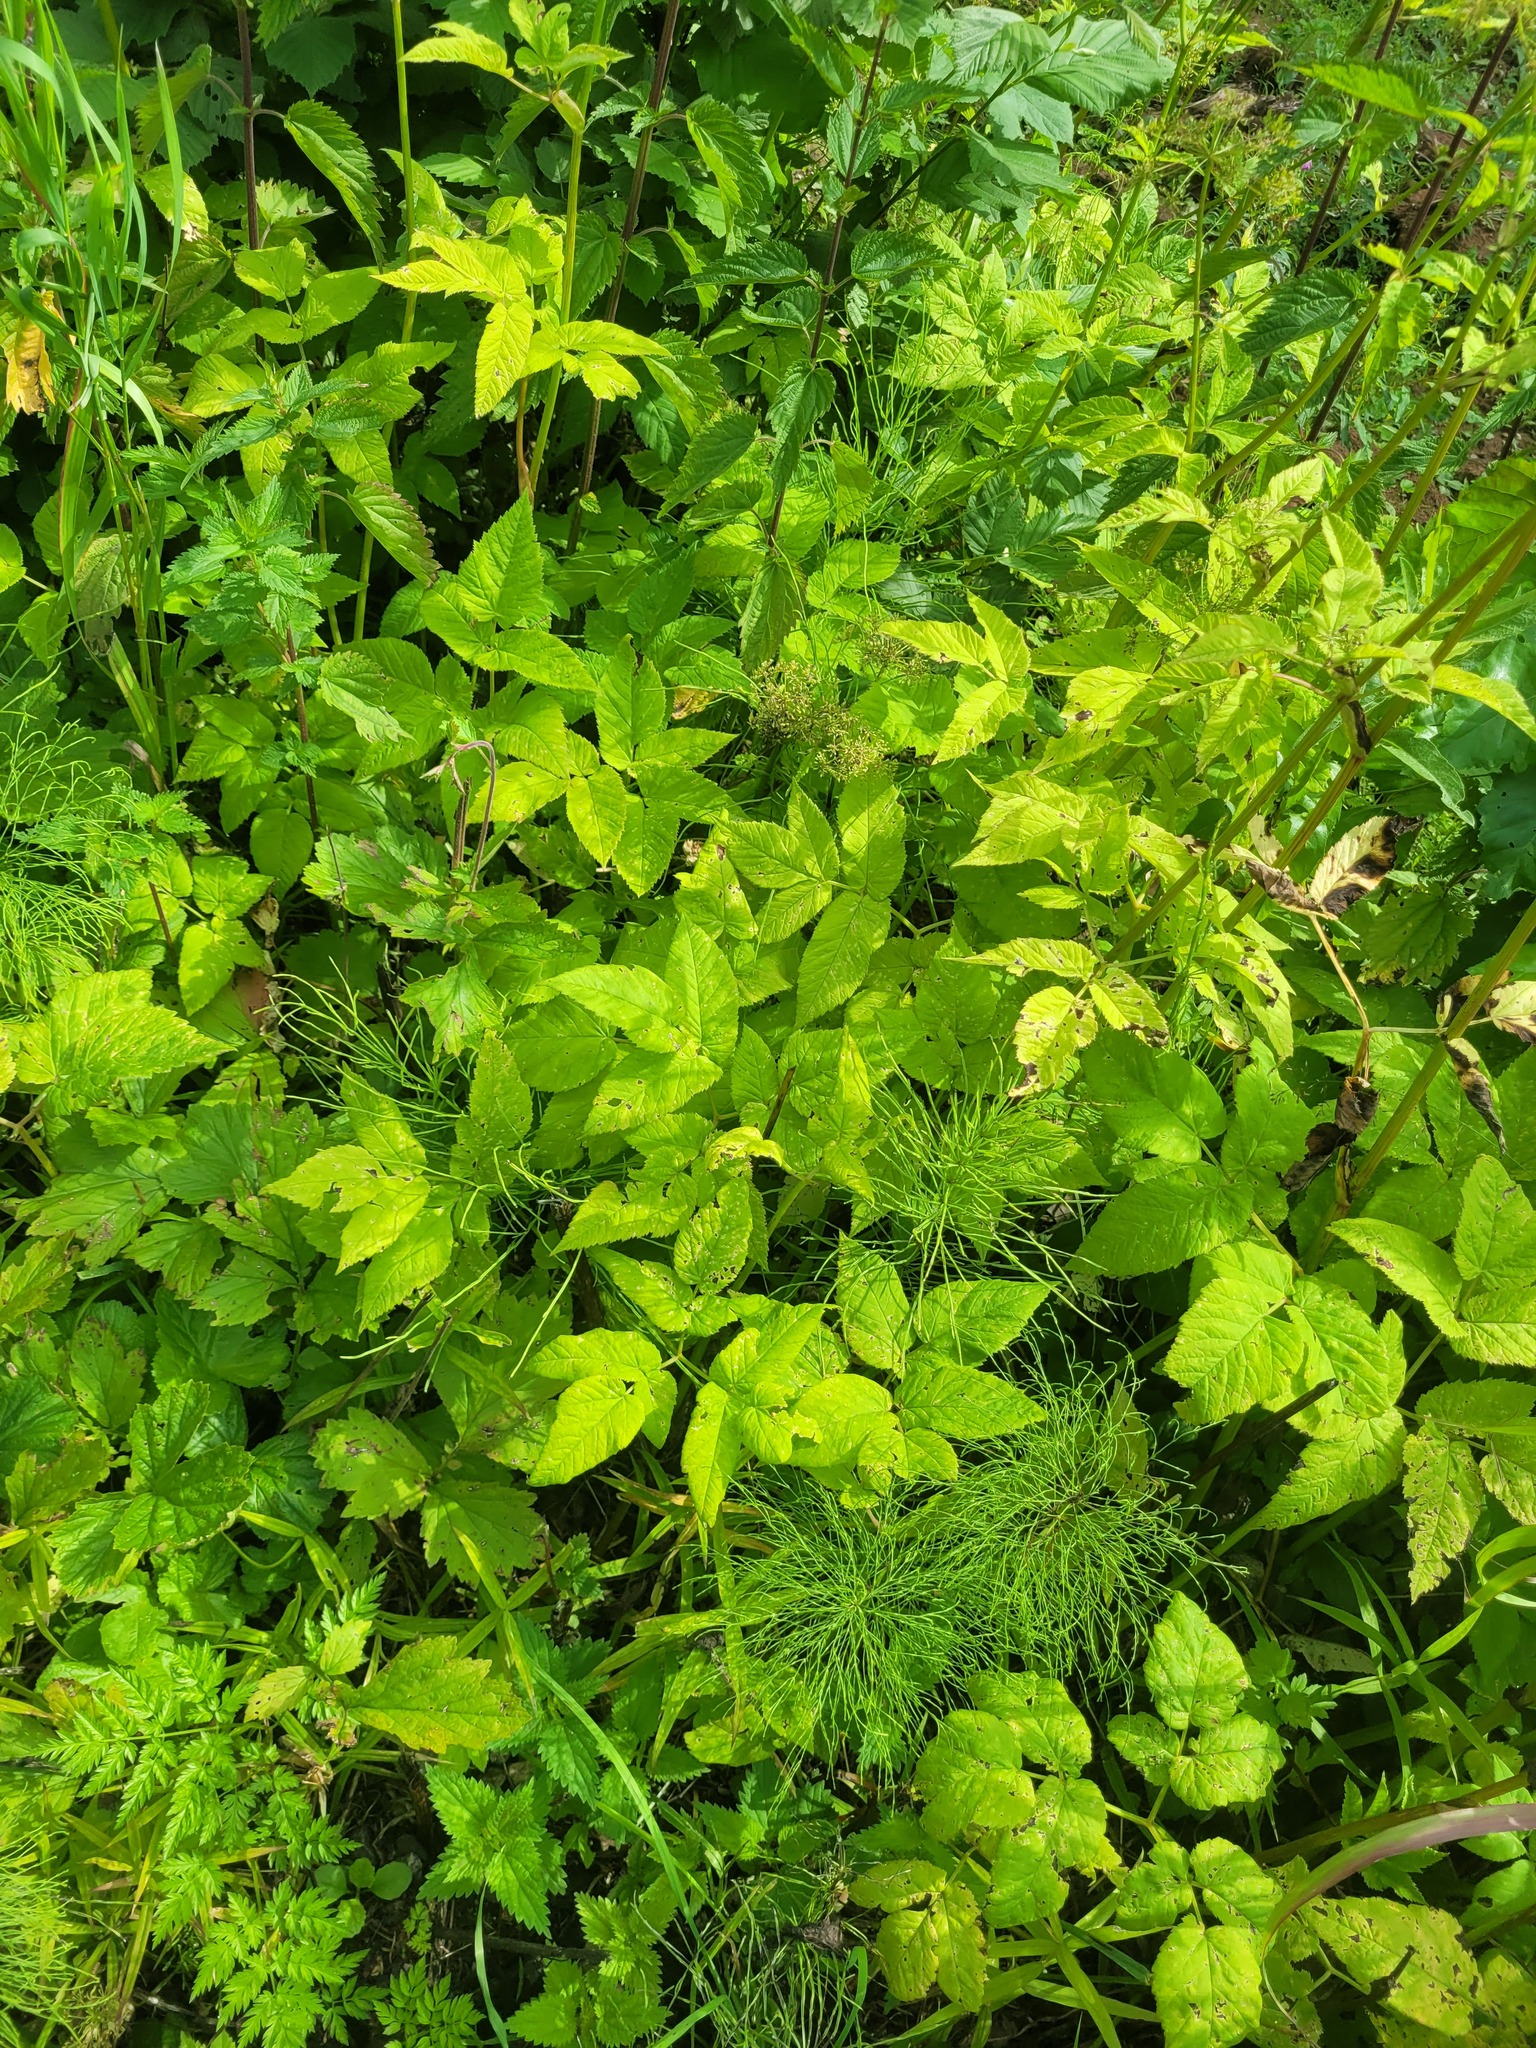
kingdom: Plantae
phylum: Tracheophyta
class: Magnoliopsida
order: Apiales
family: Apiaceae
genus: Aegopodium
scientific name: Aegopodium podagraria
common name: Ground-elder
